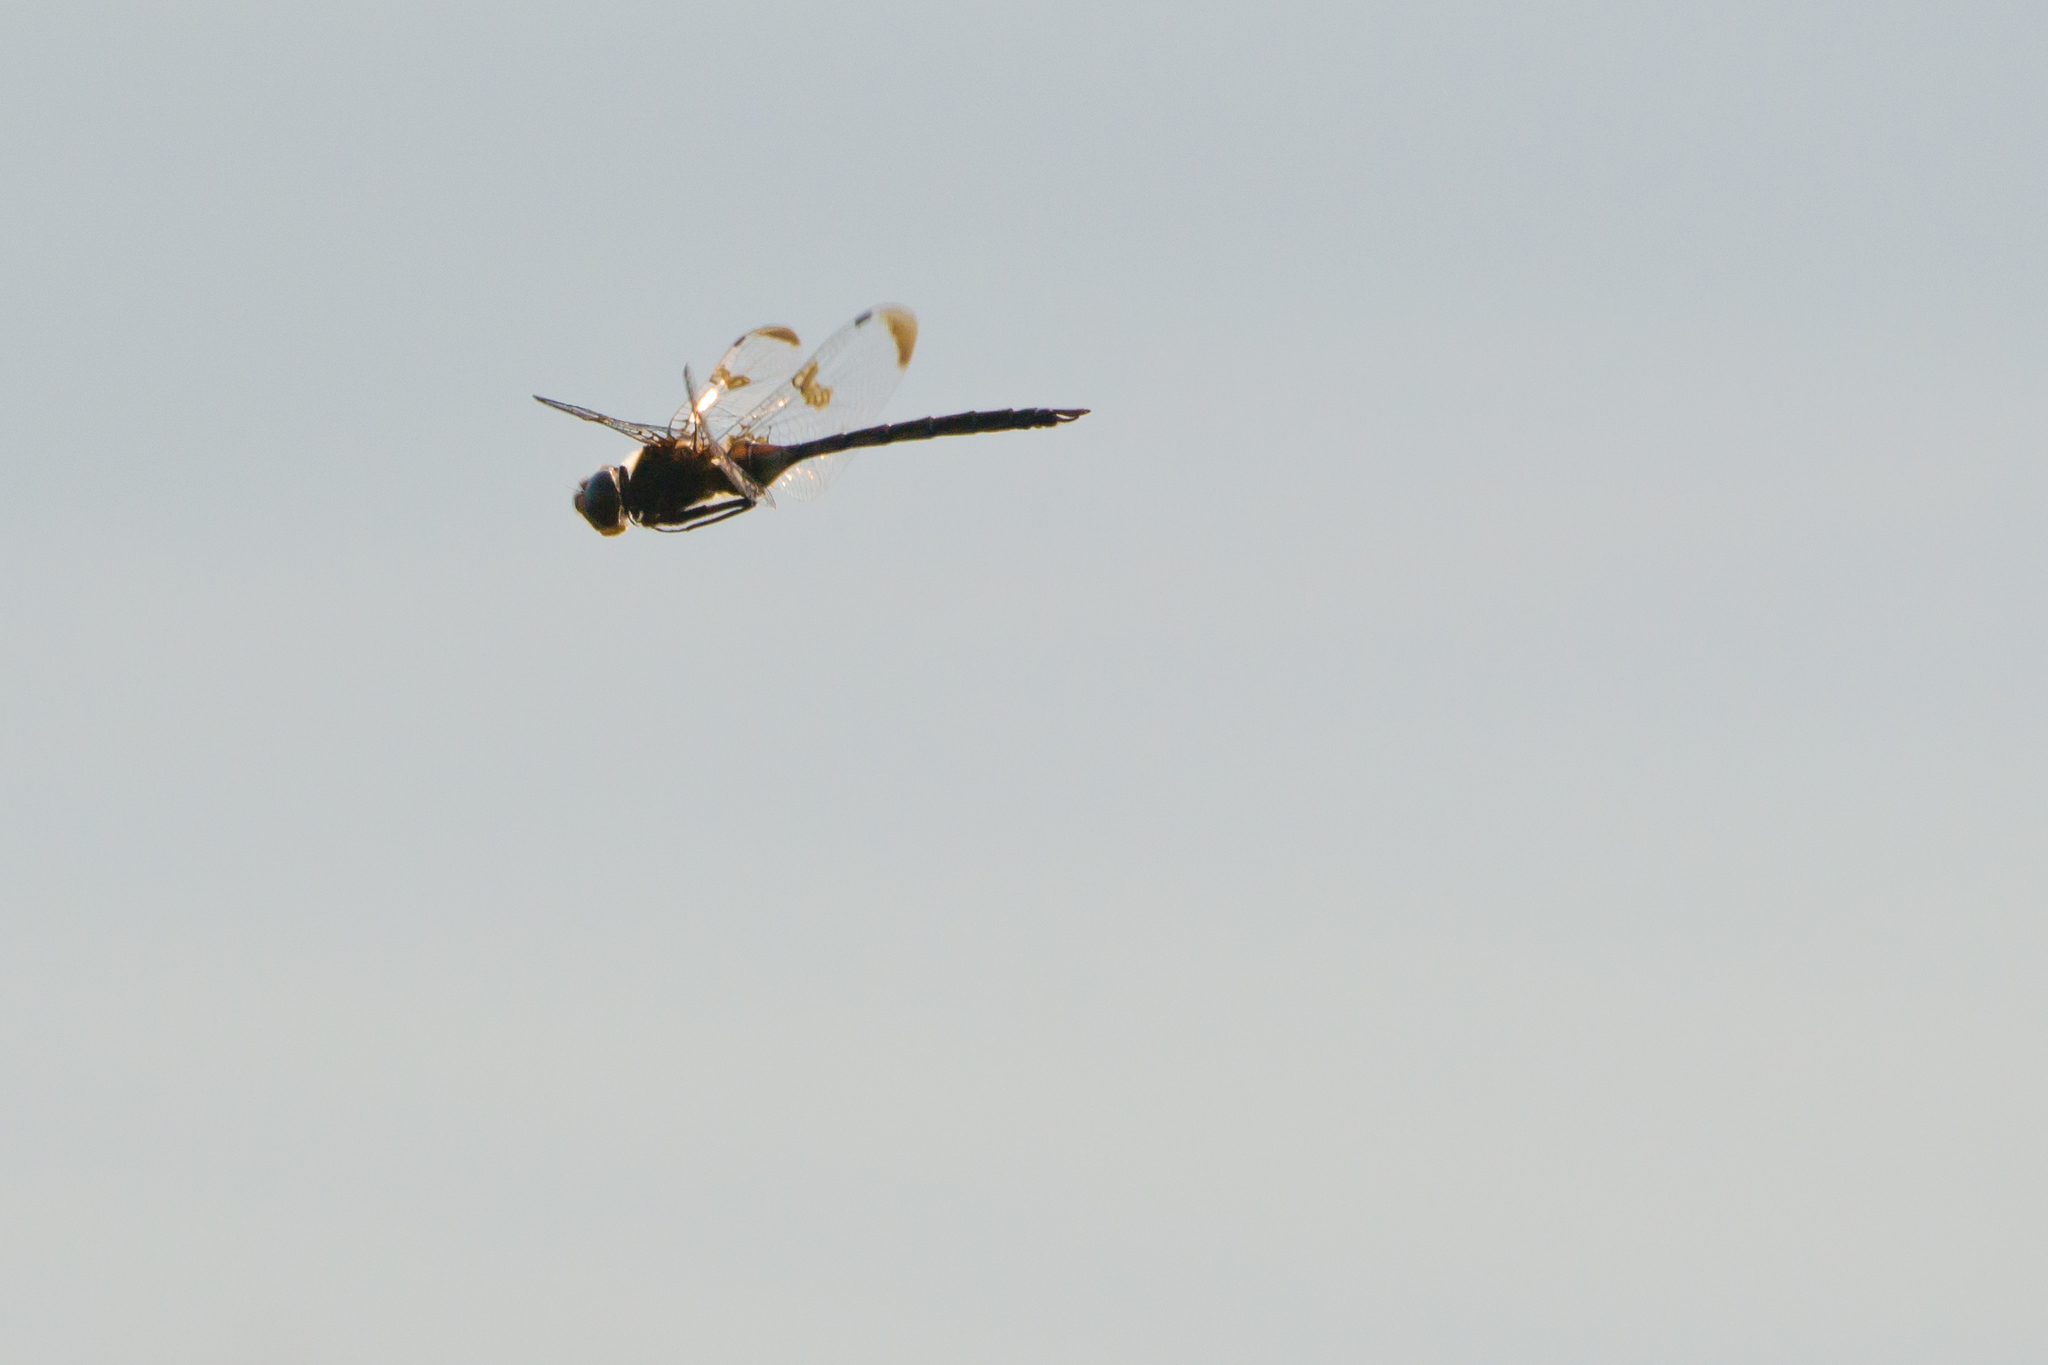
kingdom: Animalia
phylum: Arthropoda
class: Insecta
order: Odonata
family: Corduliidae
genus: Epitheca
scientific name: Epitheca princeps
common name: Prince baskettail
